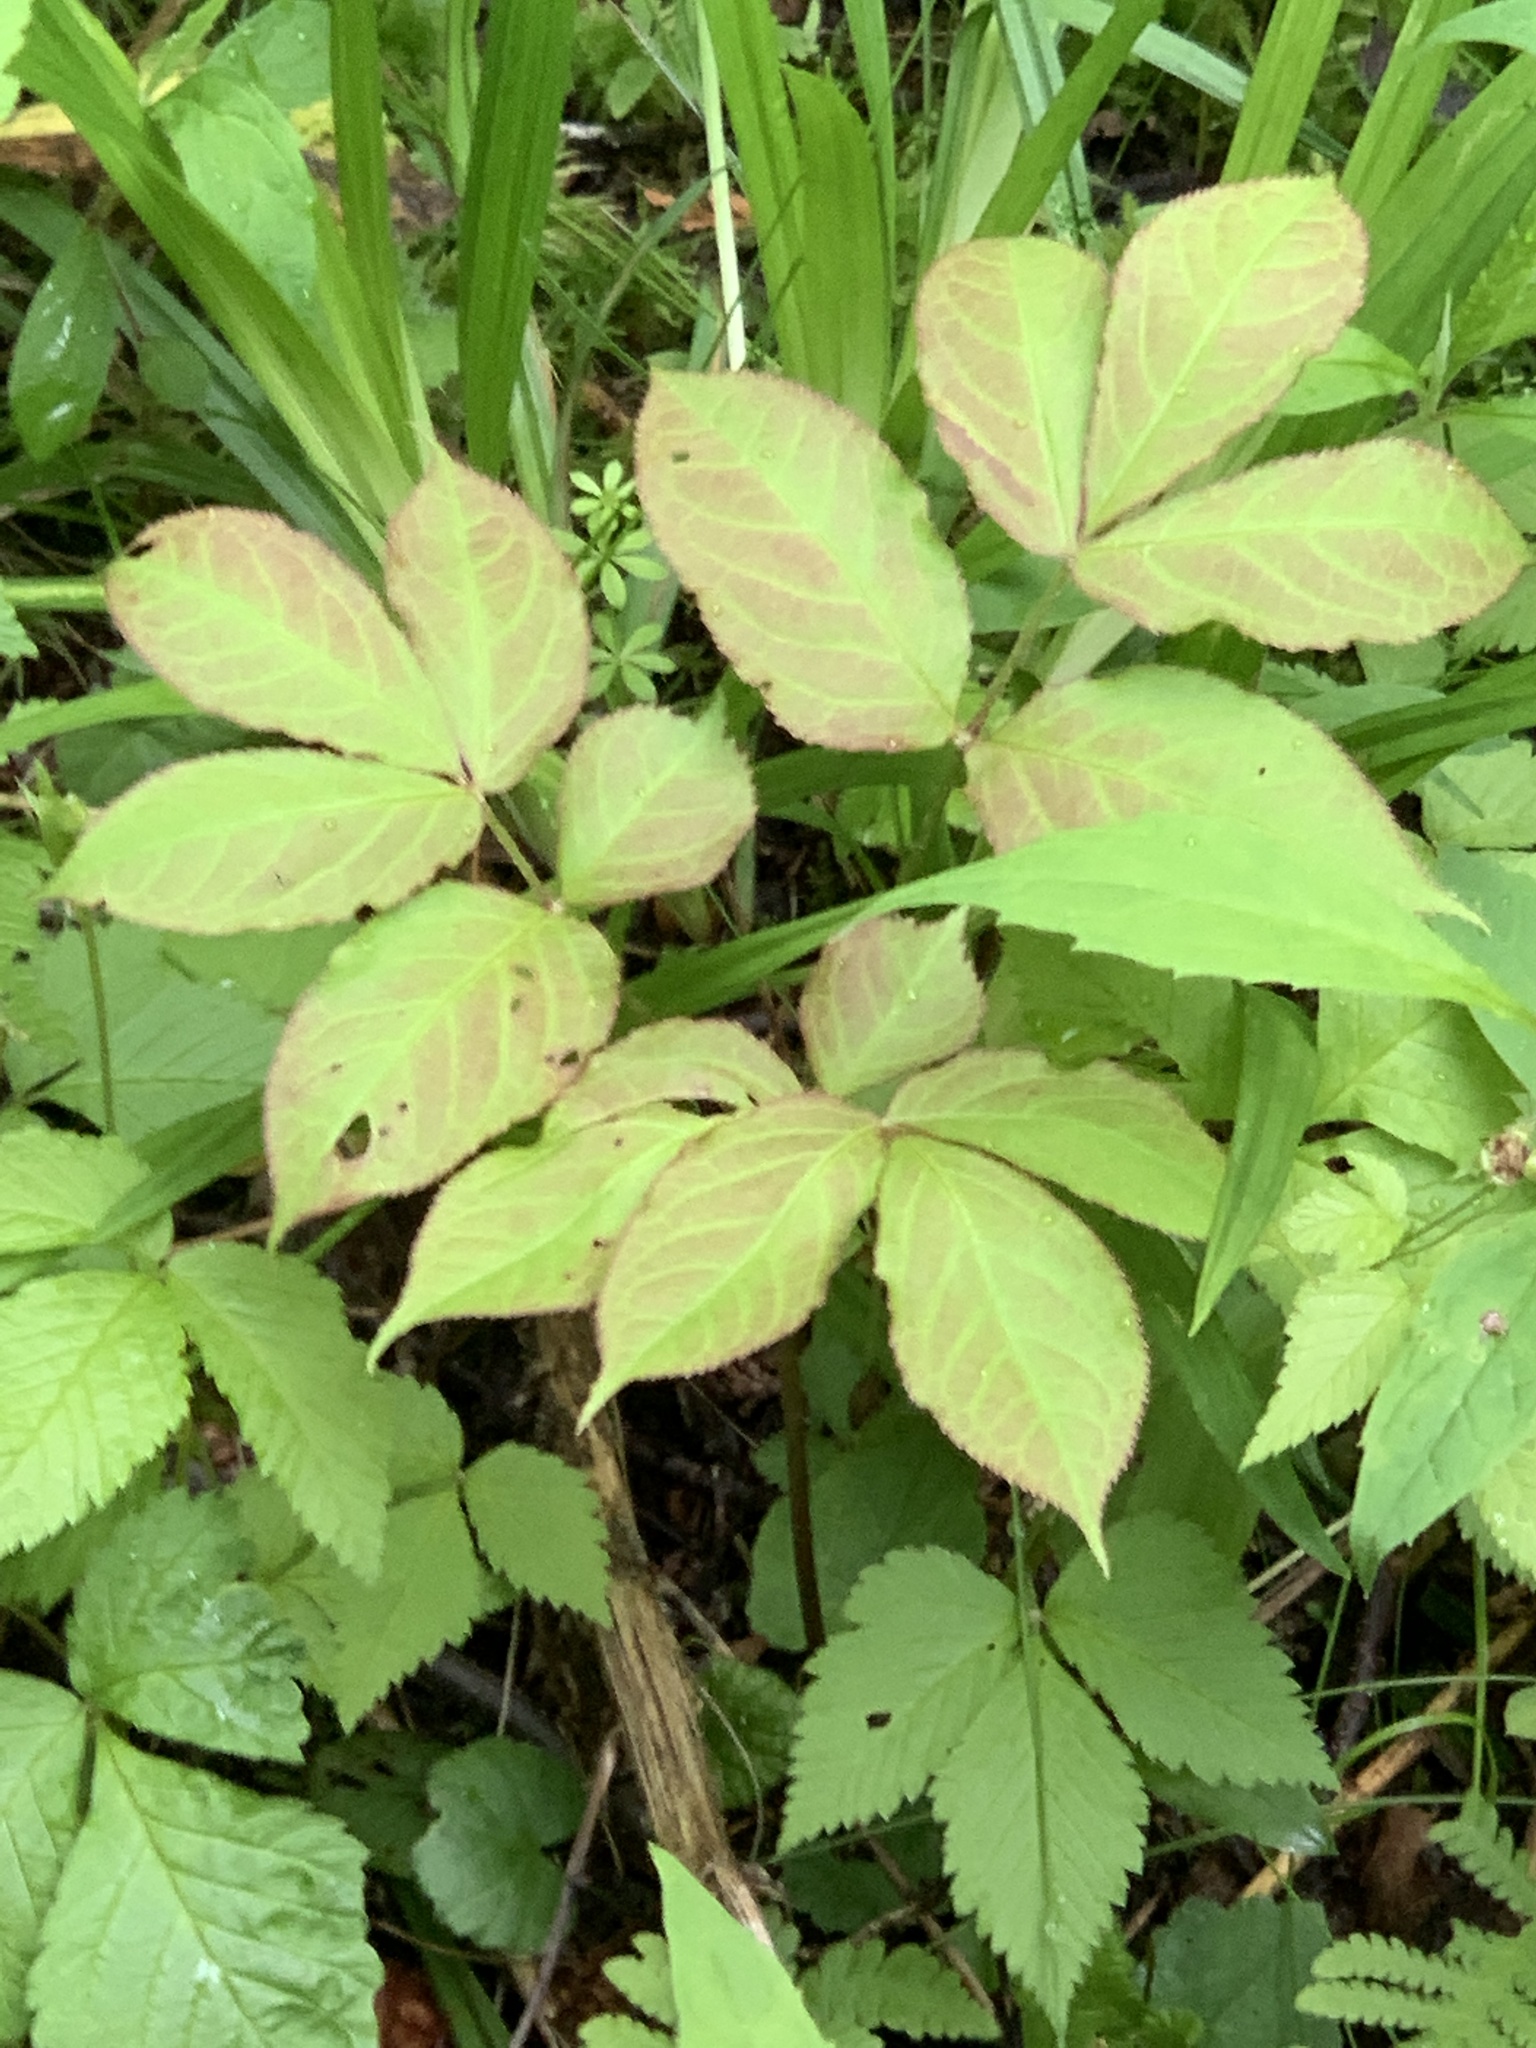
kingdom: Plantae
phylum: Tracheophyta
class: Magnoliopsida
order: Apiales
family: Araliaceae
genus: Aralia
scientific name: Aralia nudicaulis
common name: Wild sarsaparilla
